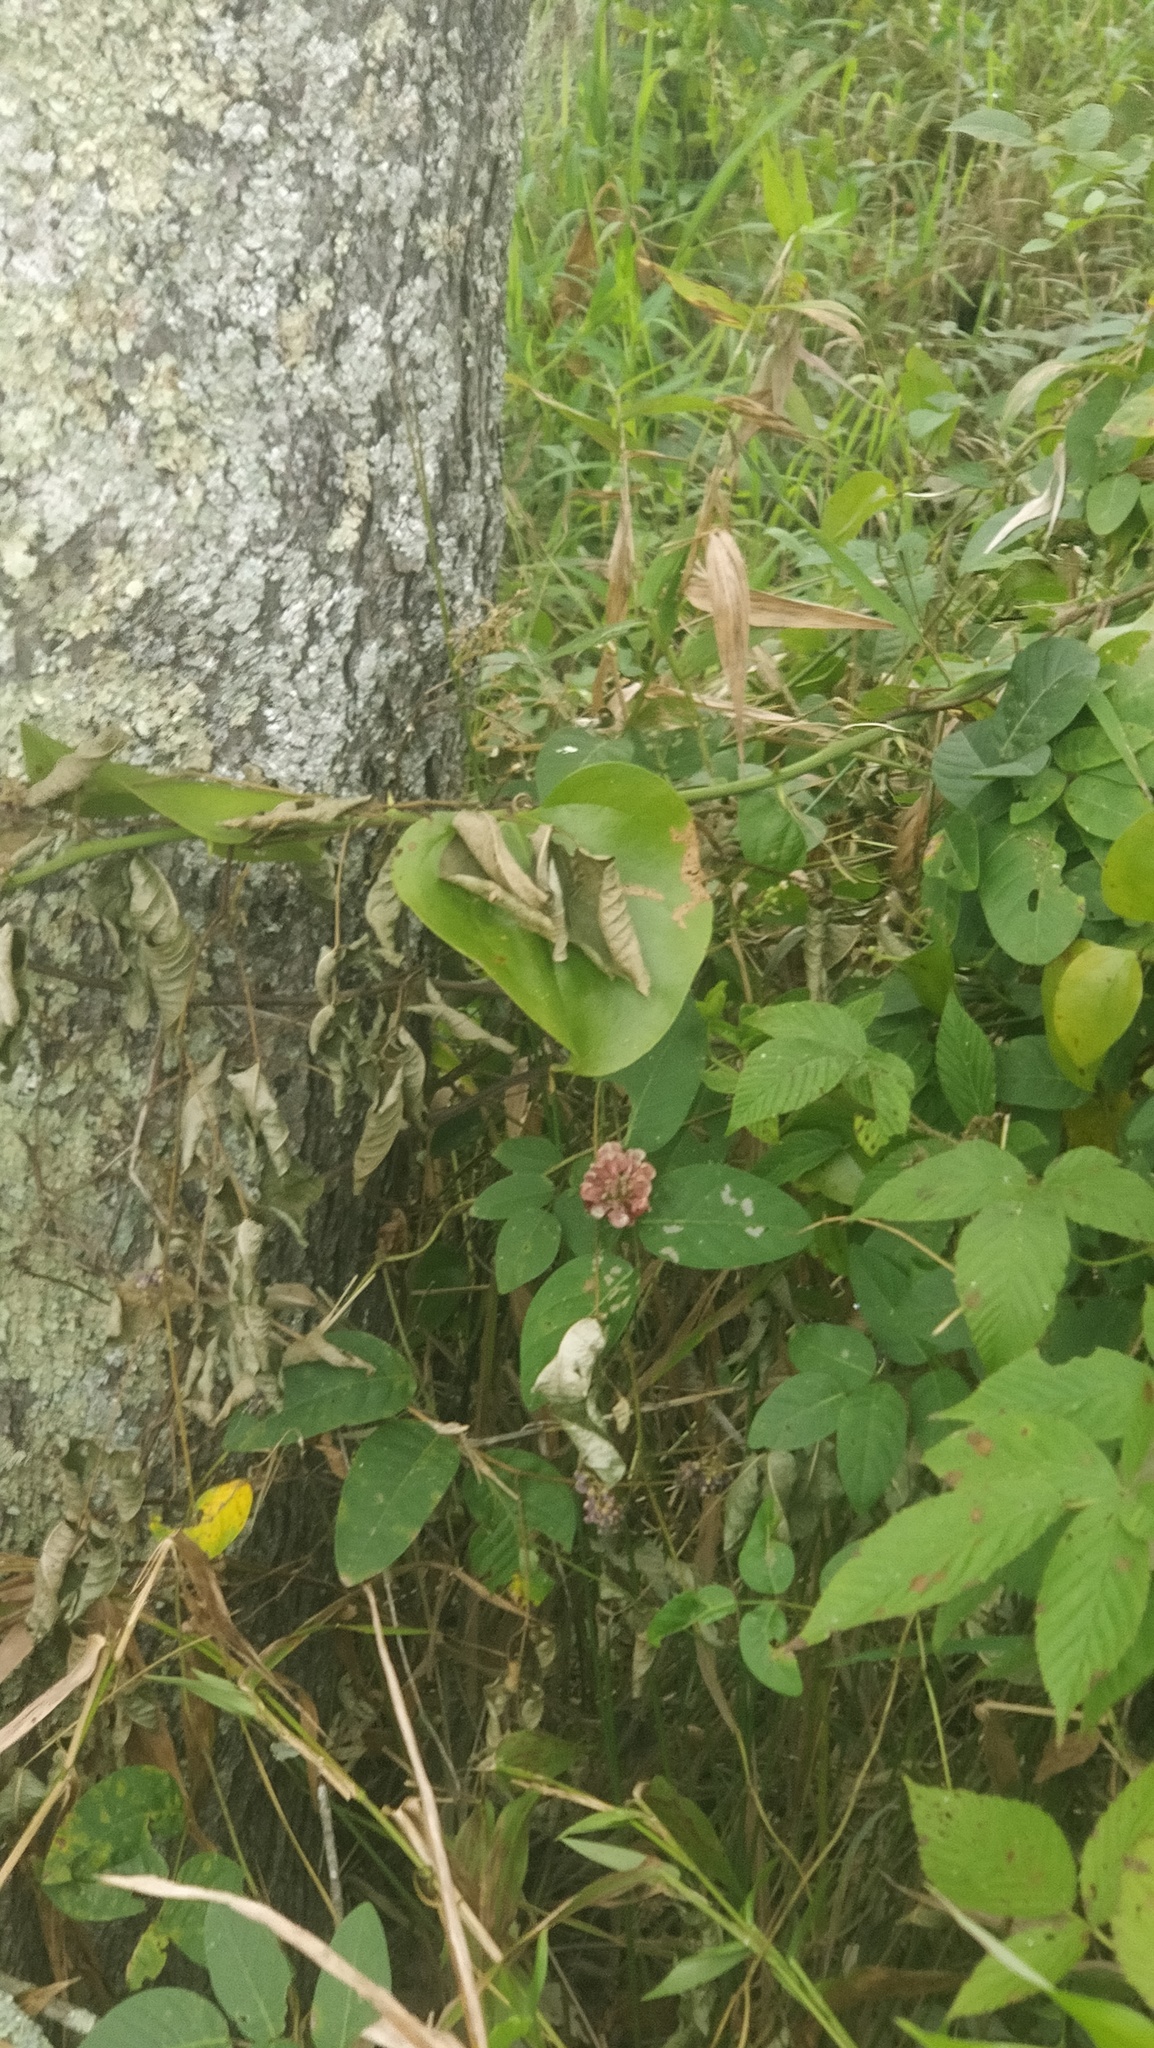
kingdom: Plantae
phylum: Tracheophyta
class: Magnoliopsida
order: Fabales
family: Fabaceae
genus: Apios
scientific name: Apios americana
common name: American potato-bean
